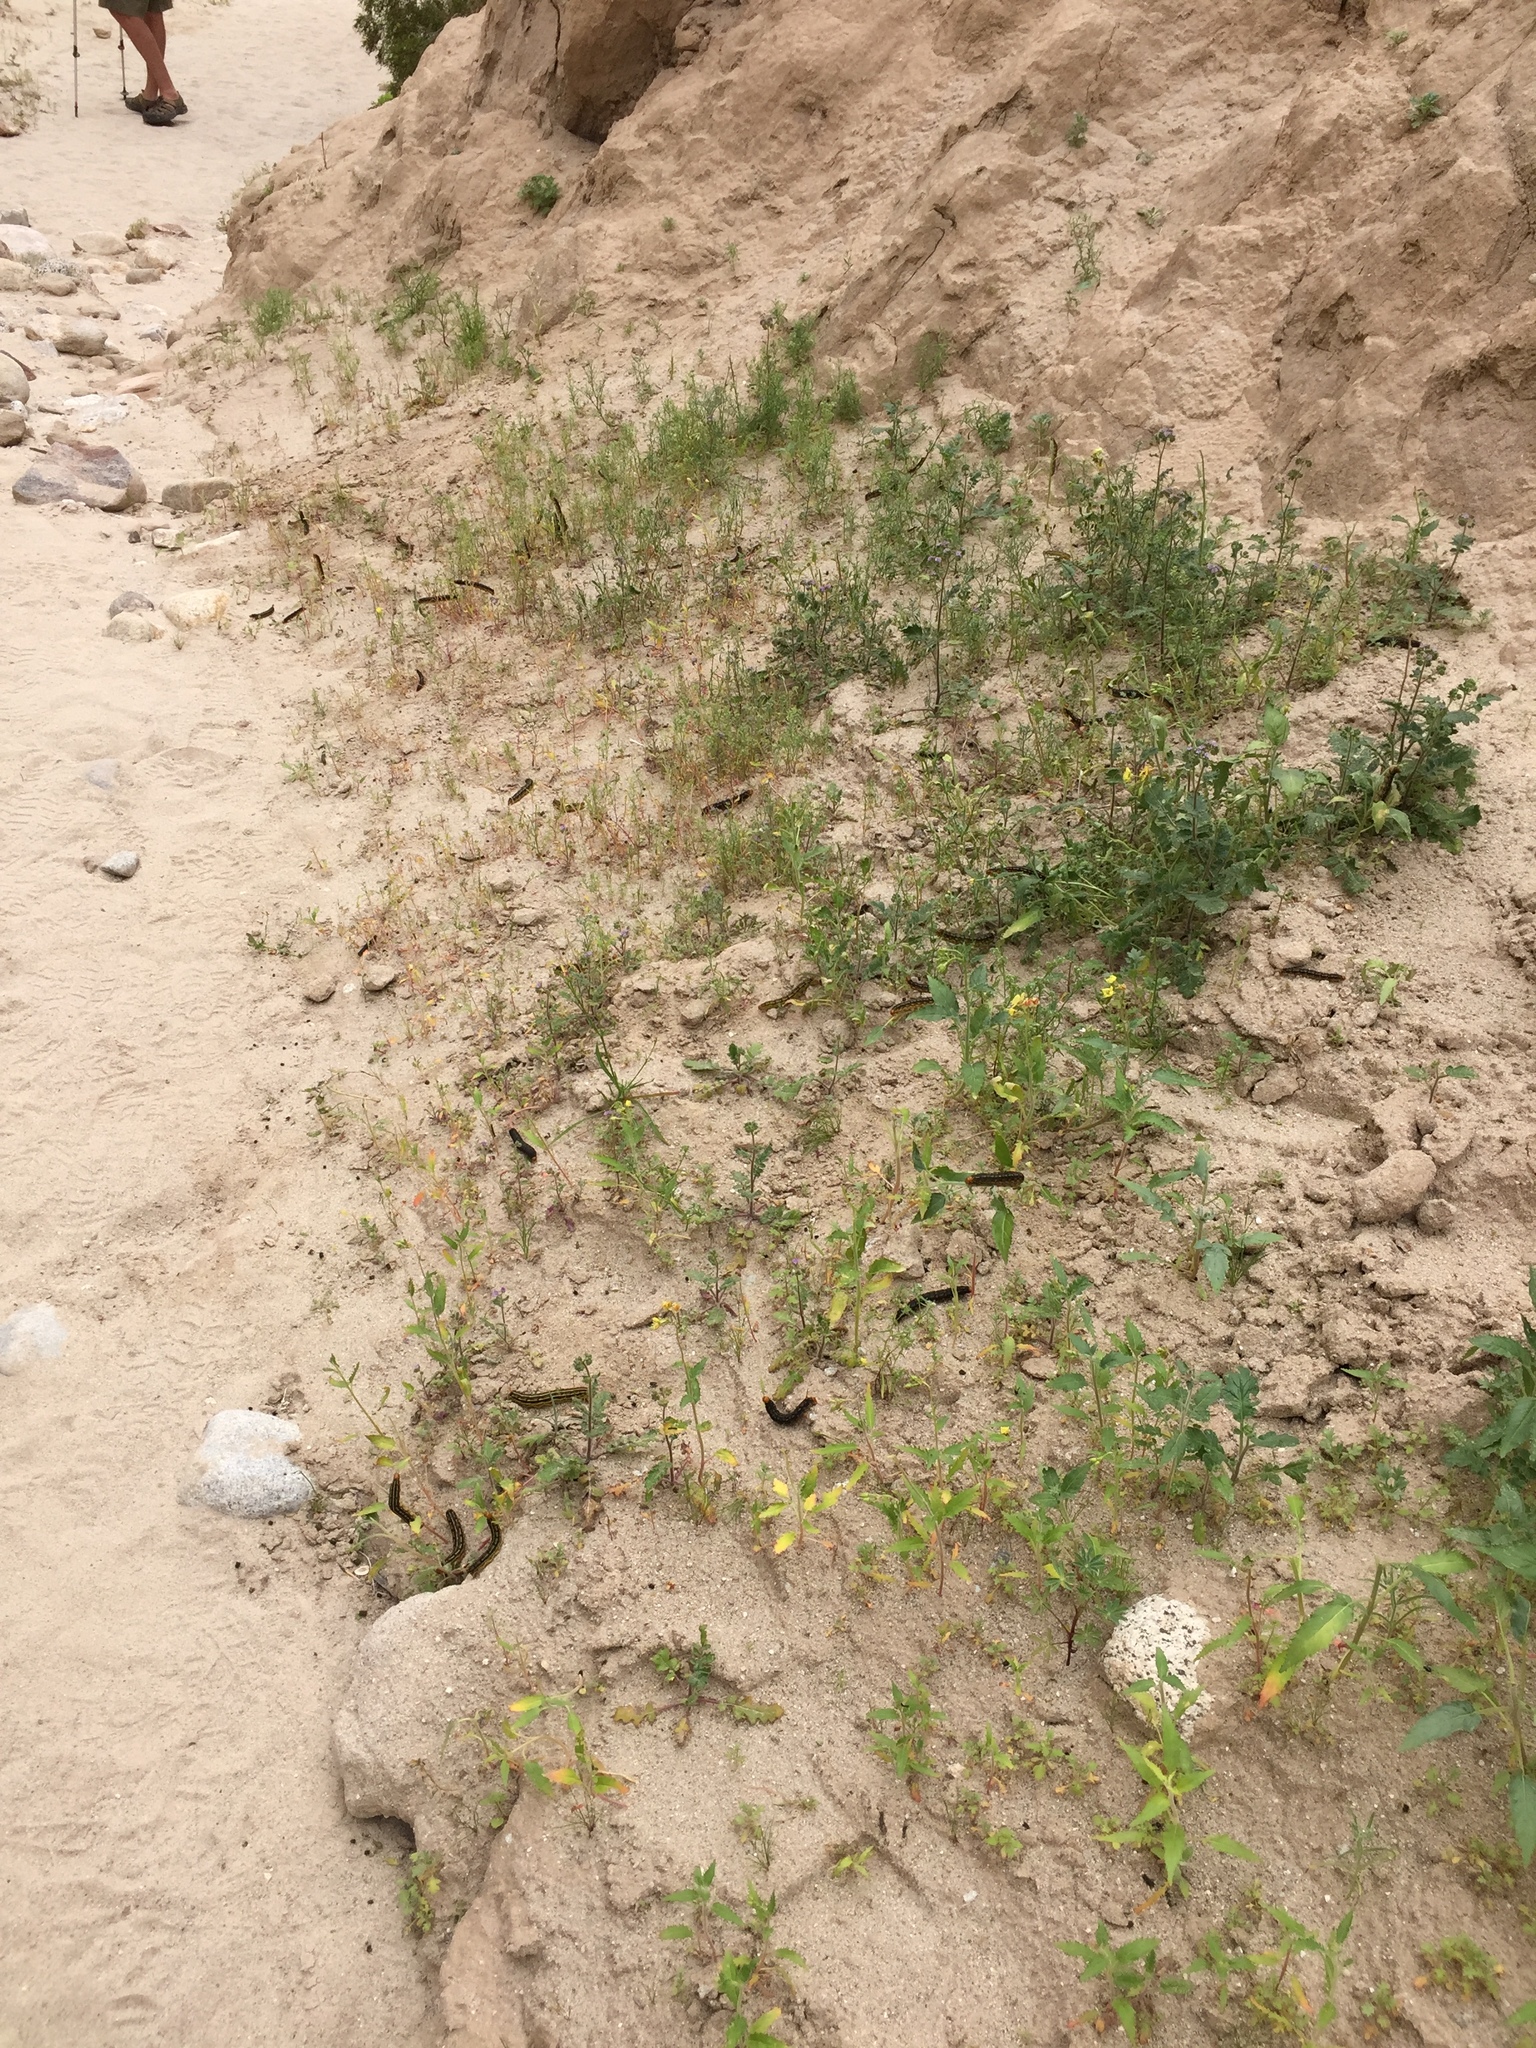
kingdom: Animalia
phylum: Arthropoda
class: Insecta
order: Lepidoptera
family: Sphingidae
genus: Hyles
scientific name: Hyles lineata
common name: White-lined sphinx
